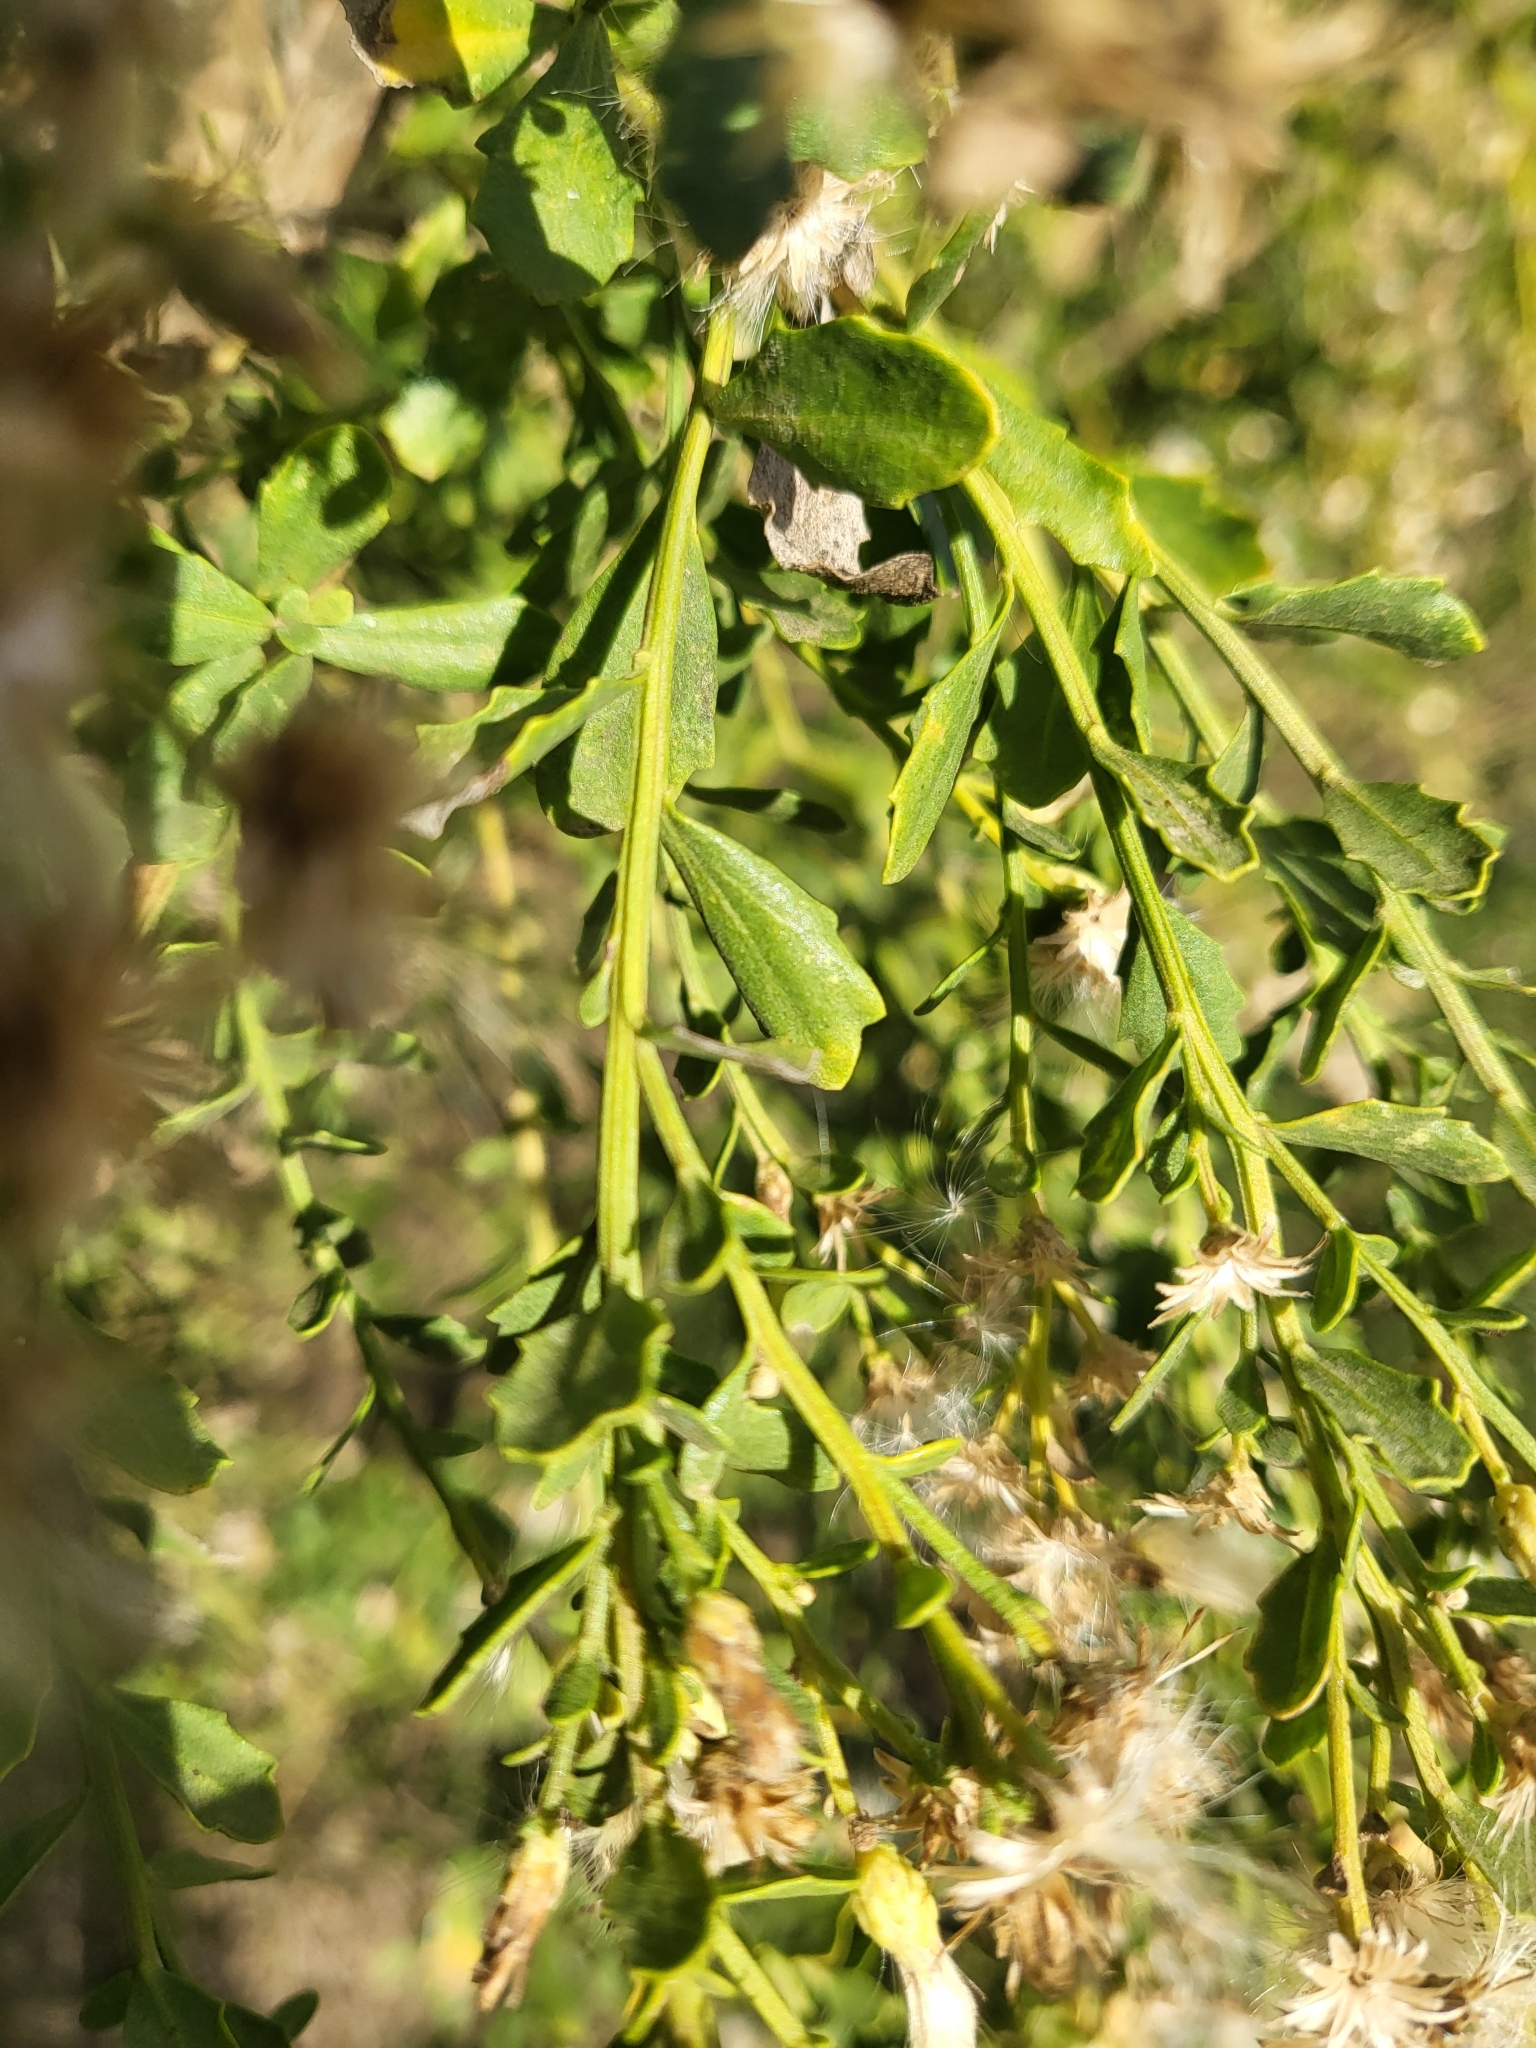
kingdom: Plantae
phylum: Tracheophyta
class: Magnoliopsida
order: Asterales
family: Asteraceae
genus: Baccharis
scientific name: Baccharis pilularis
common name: Coyotebrush
